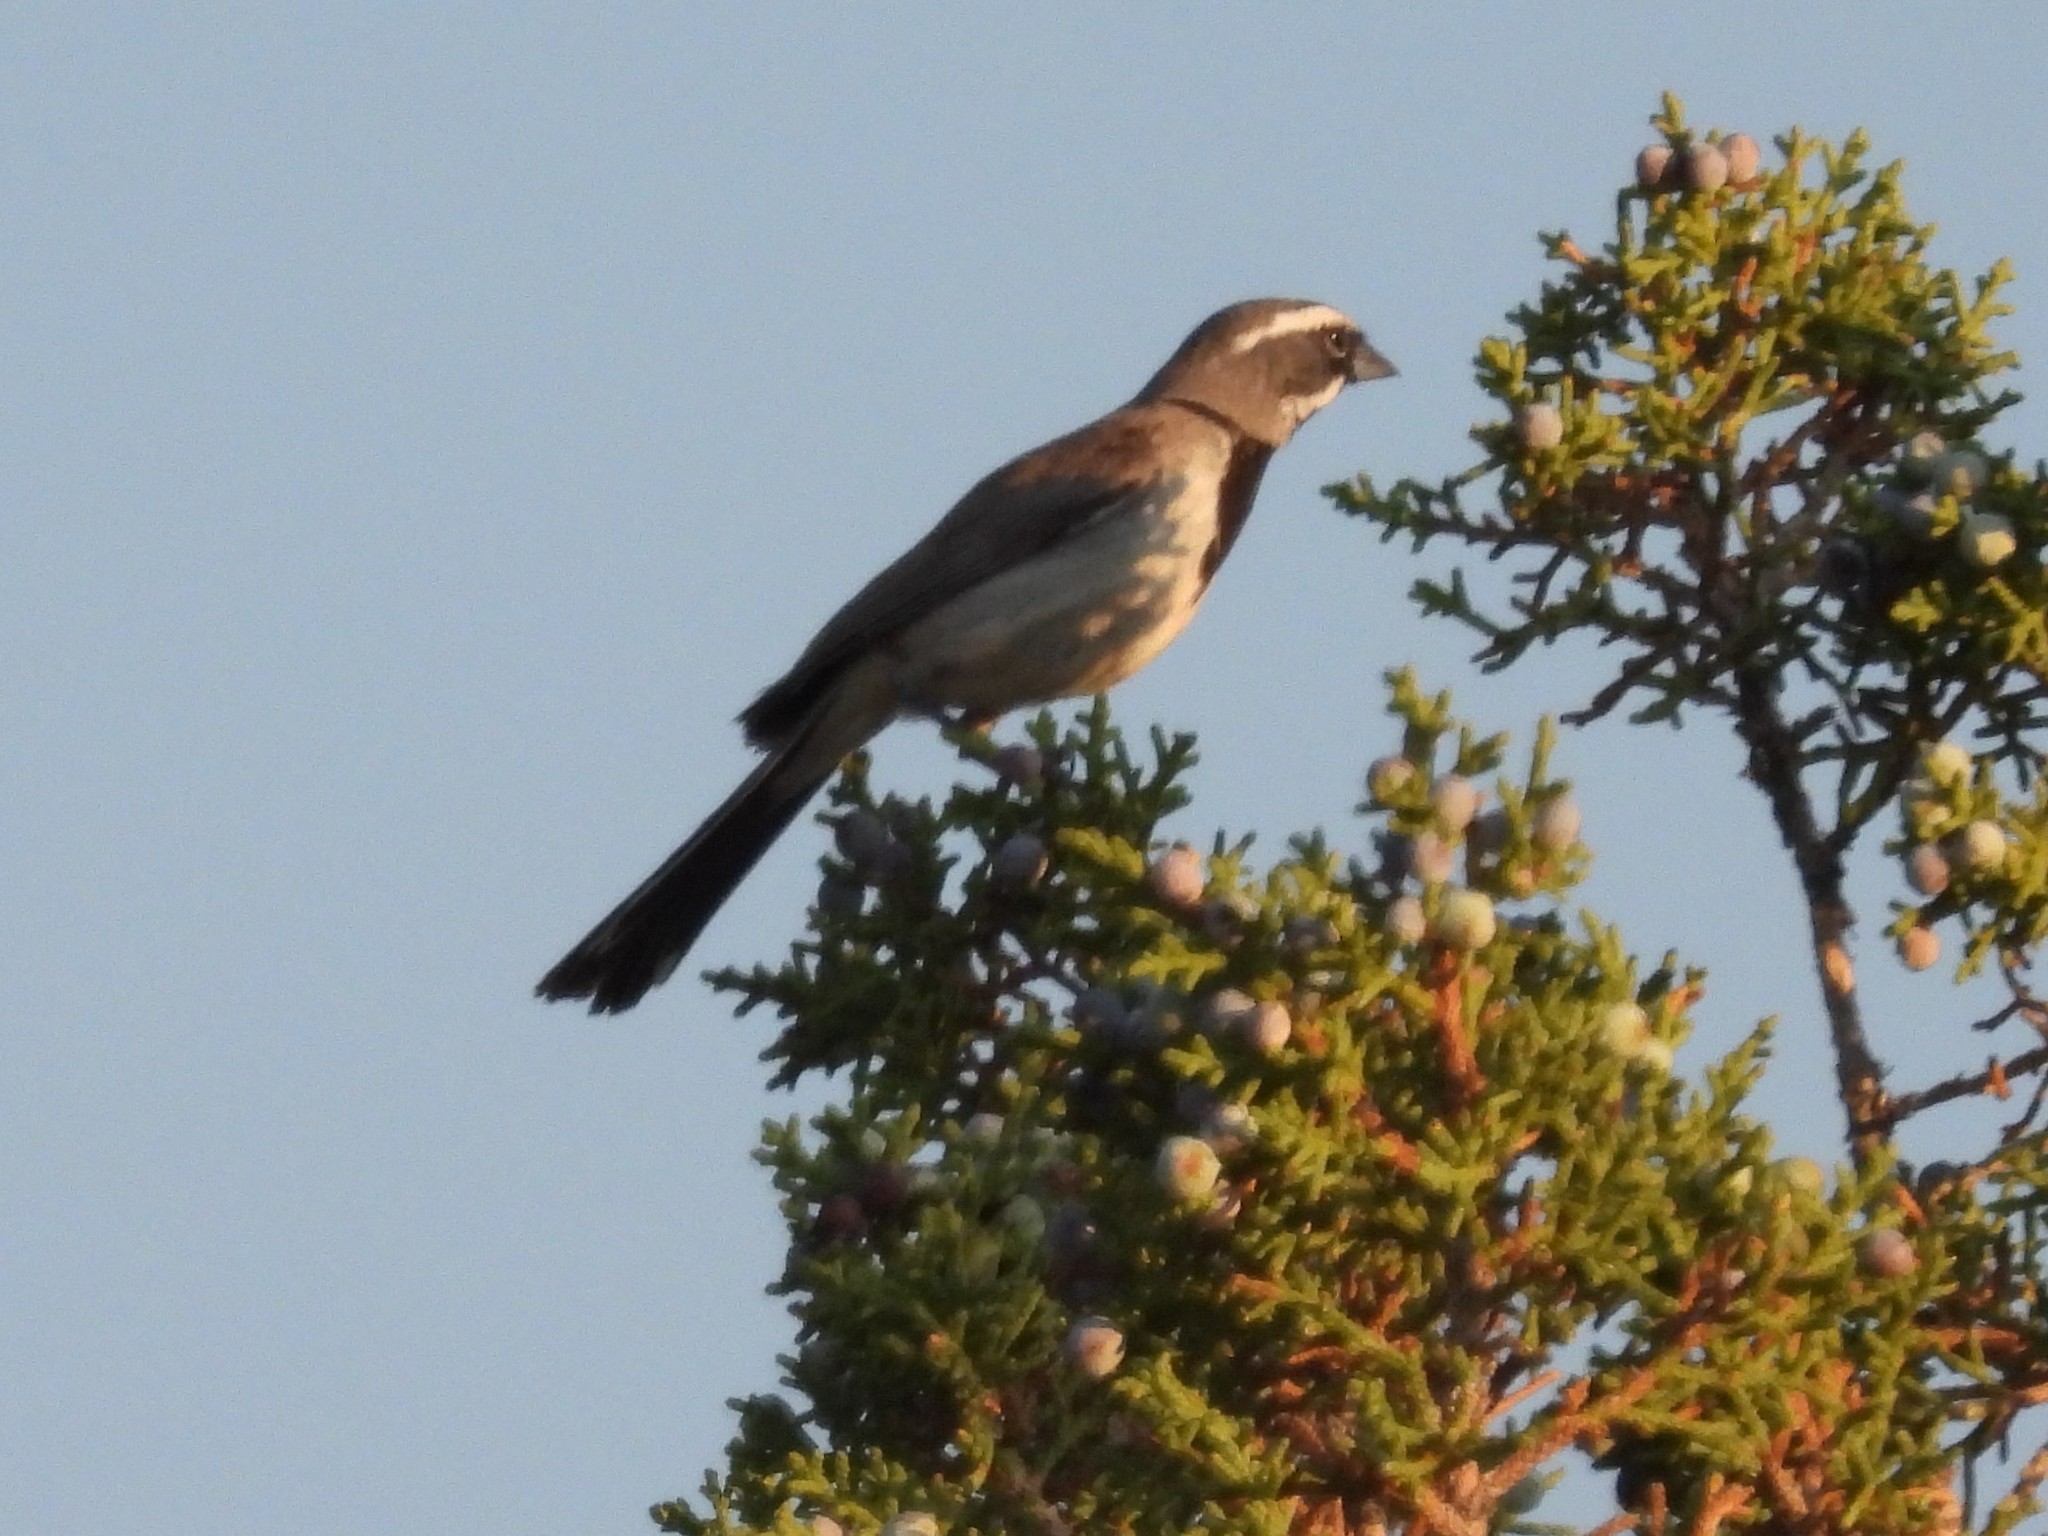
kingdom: Animalia
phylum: Chordata
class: Aves
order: Passeriformes
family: Passerellidae
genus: Amphispiza
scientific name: Amphispiza bilineata
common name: Black-throated sparrow
